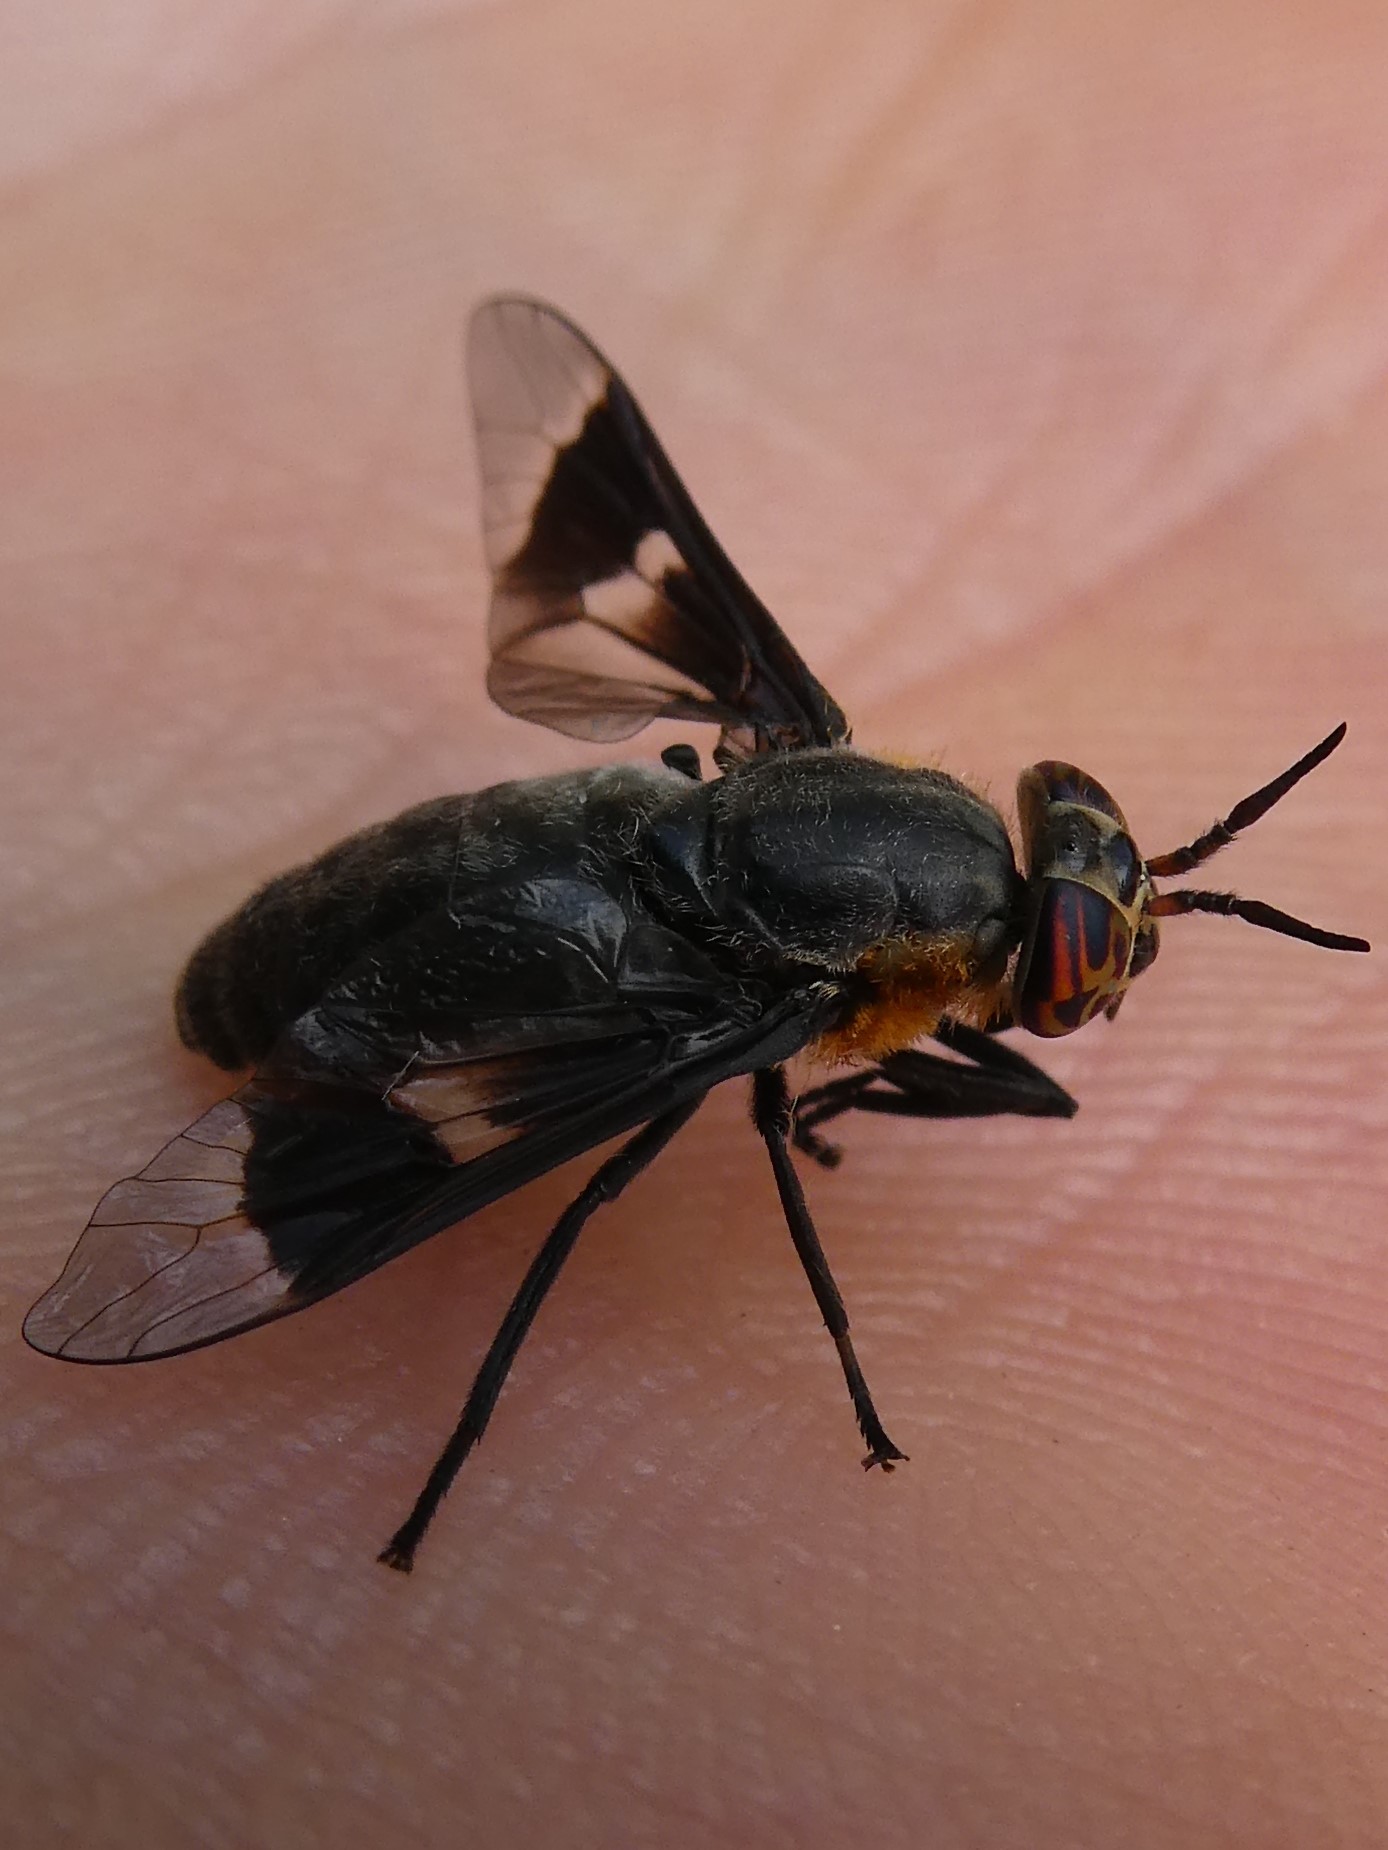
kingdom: Animalia
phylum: Arthropoda
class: Insecta
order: Diptera
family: Tabanidae
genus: Chrysops
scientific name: Chrysops cincticornis
